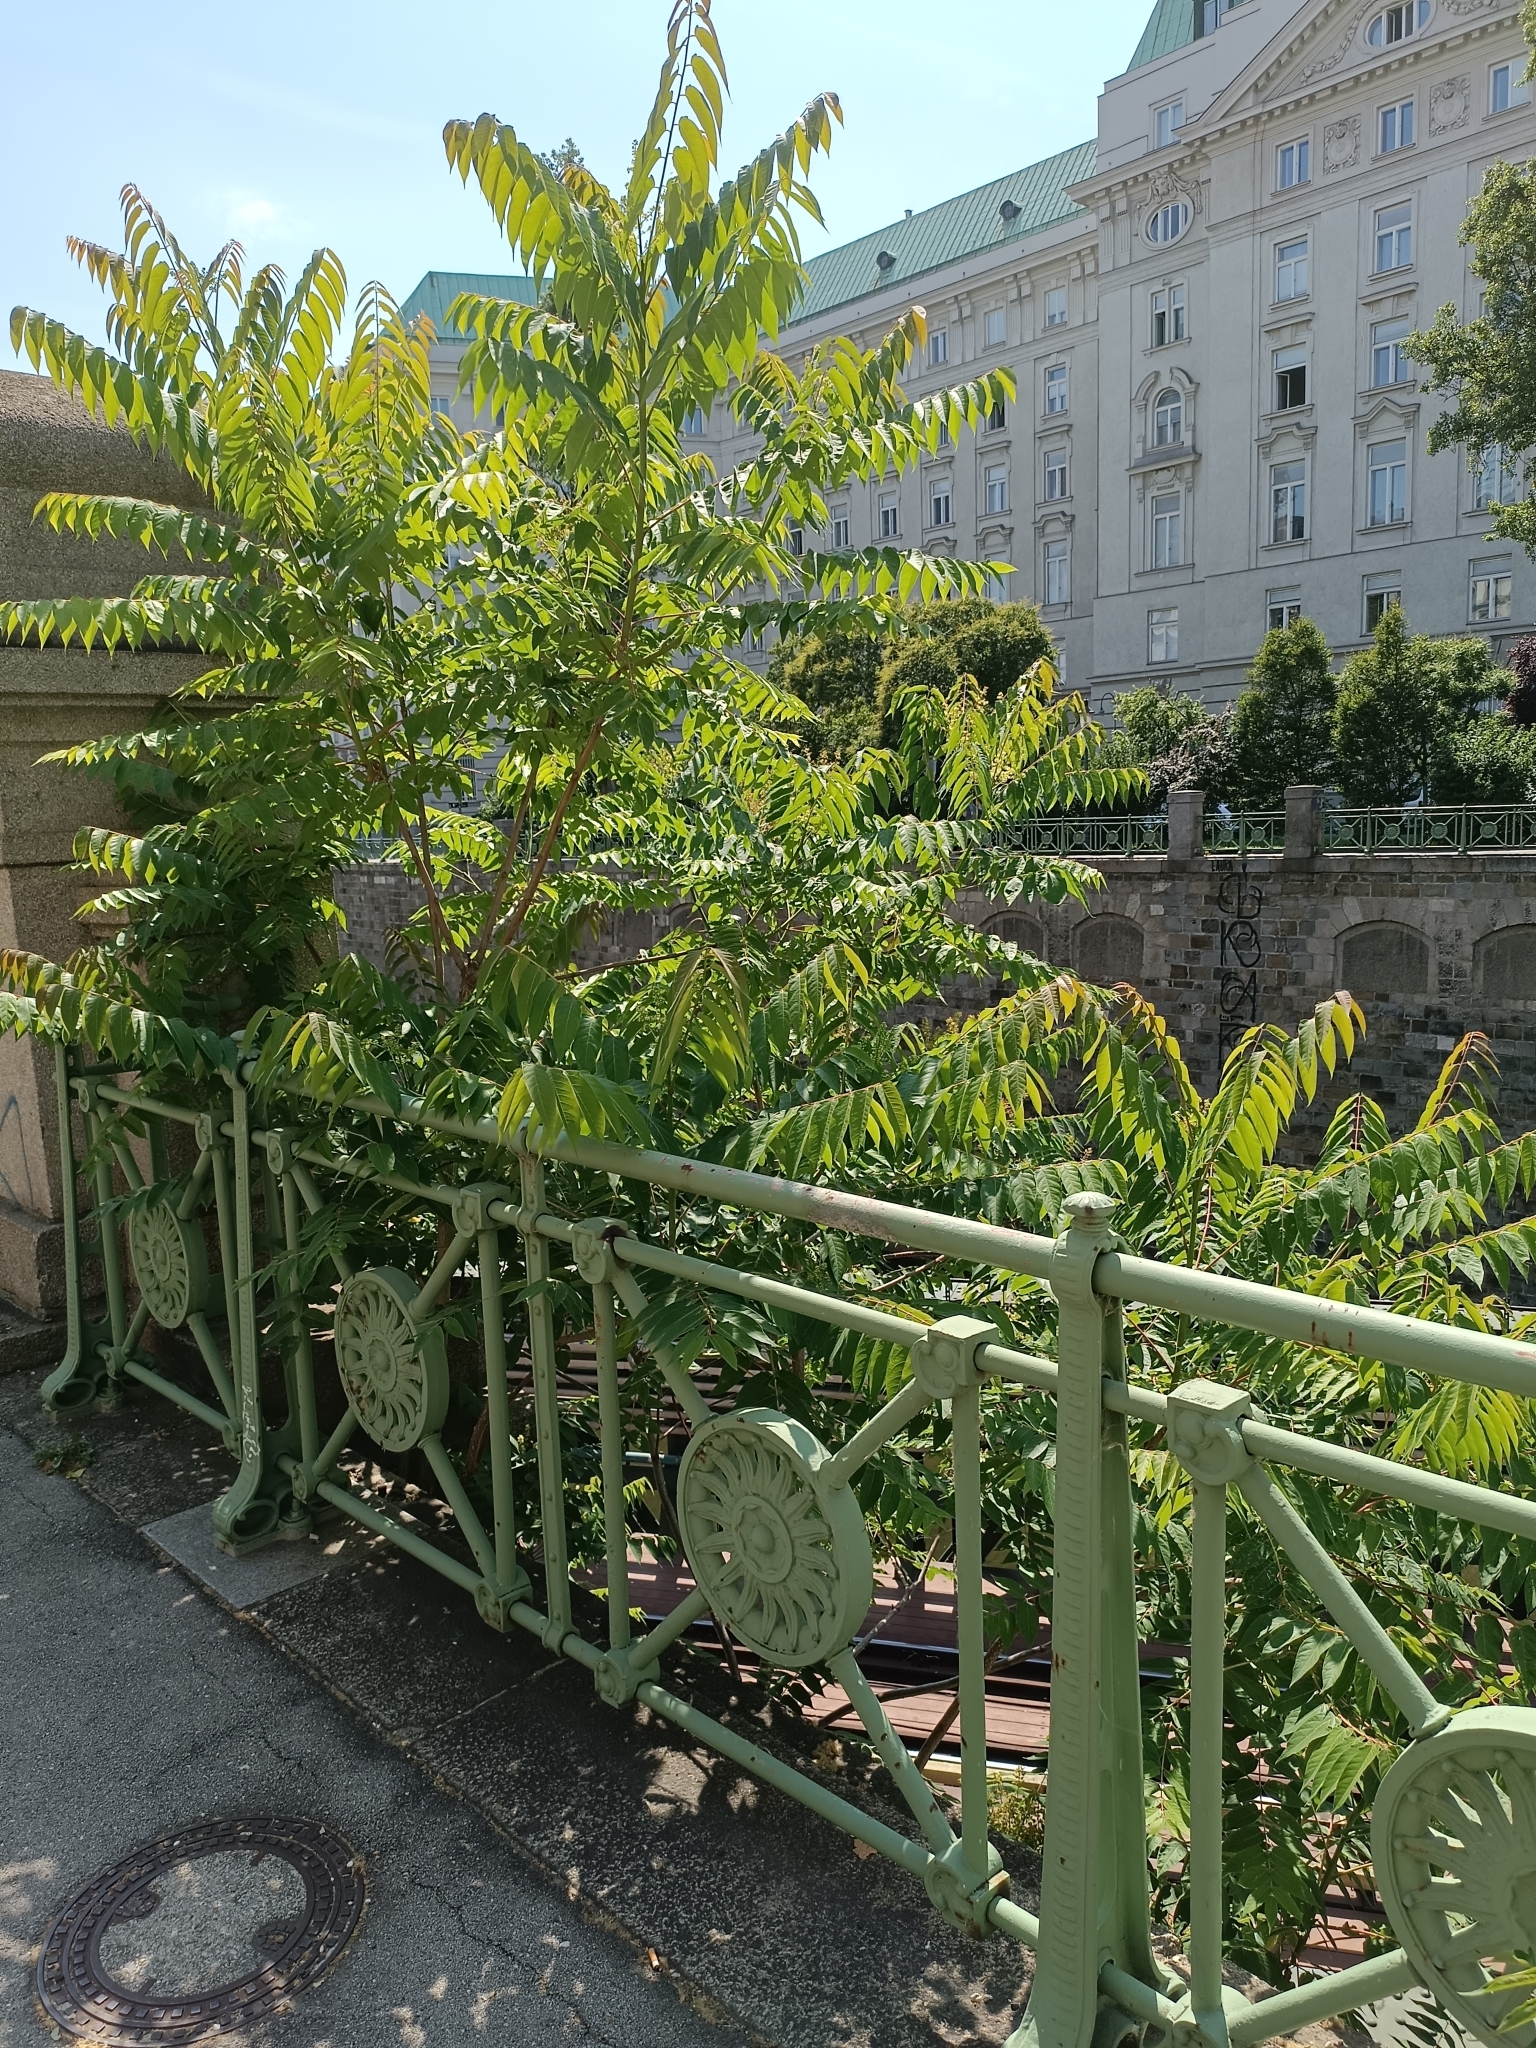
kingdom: Plantae
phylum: Tracheophyta
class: Magnoliopsida
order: Sapindales
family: Simaroubaceae
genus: Ailanthus
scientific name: Ailanthus altissima
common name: Tree-of-heaven
